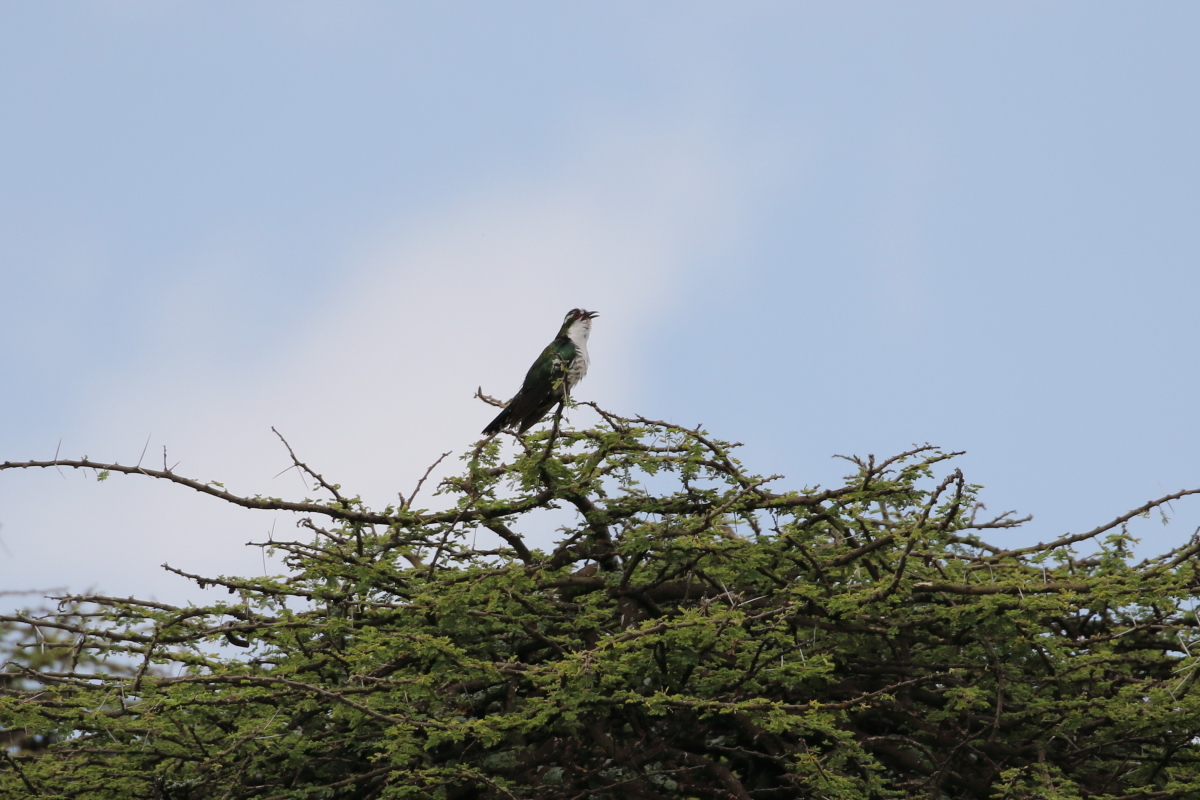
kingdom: Animalia
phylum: Chordata
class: Aves
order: Cuculiformes
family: Cuculidae
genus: Chrysococcyx
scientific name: Chrysococcyx caprius
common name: Diederik cuckoo
